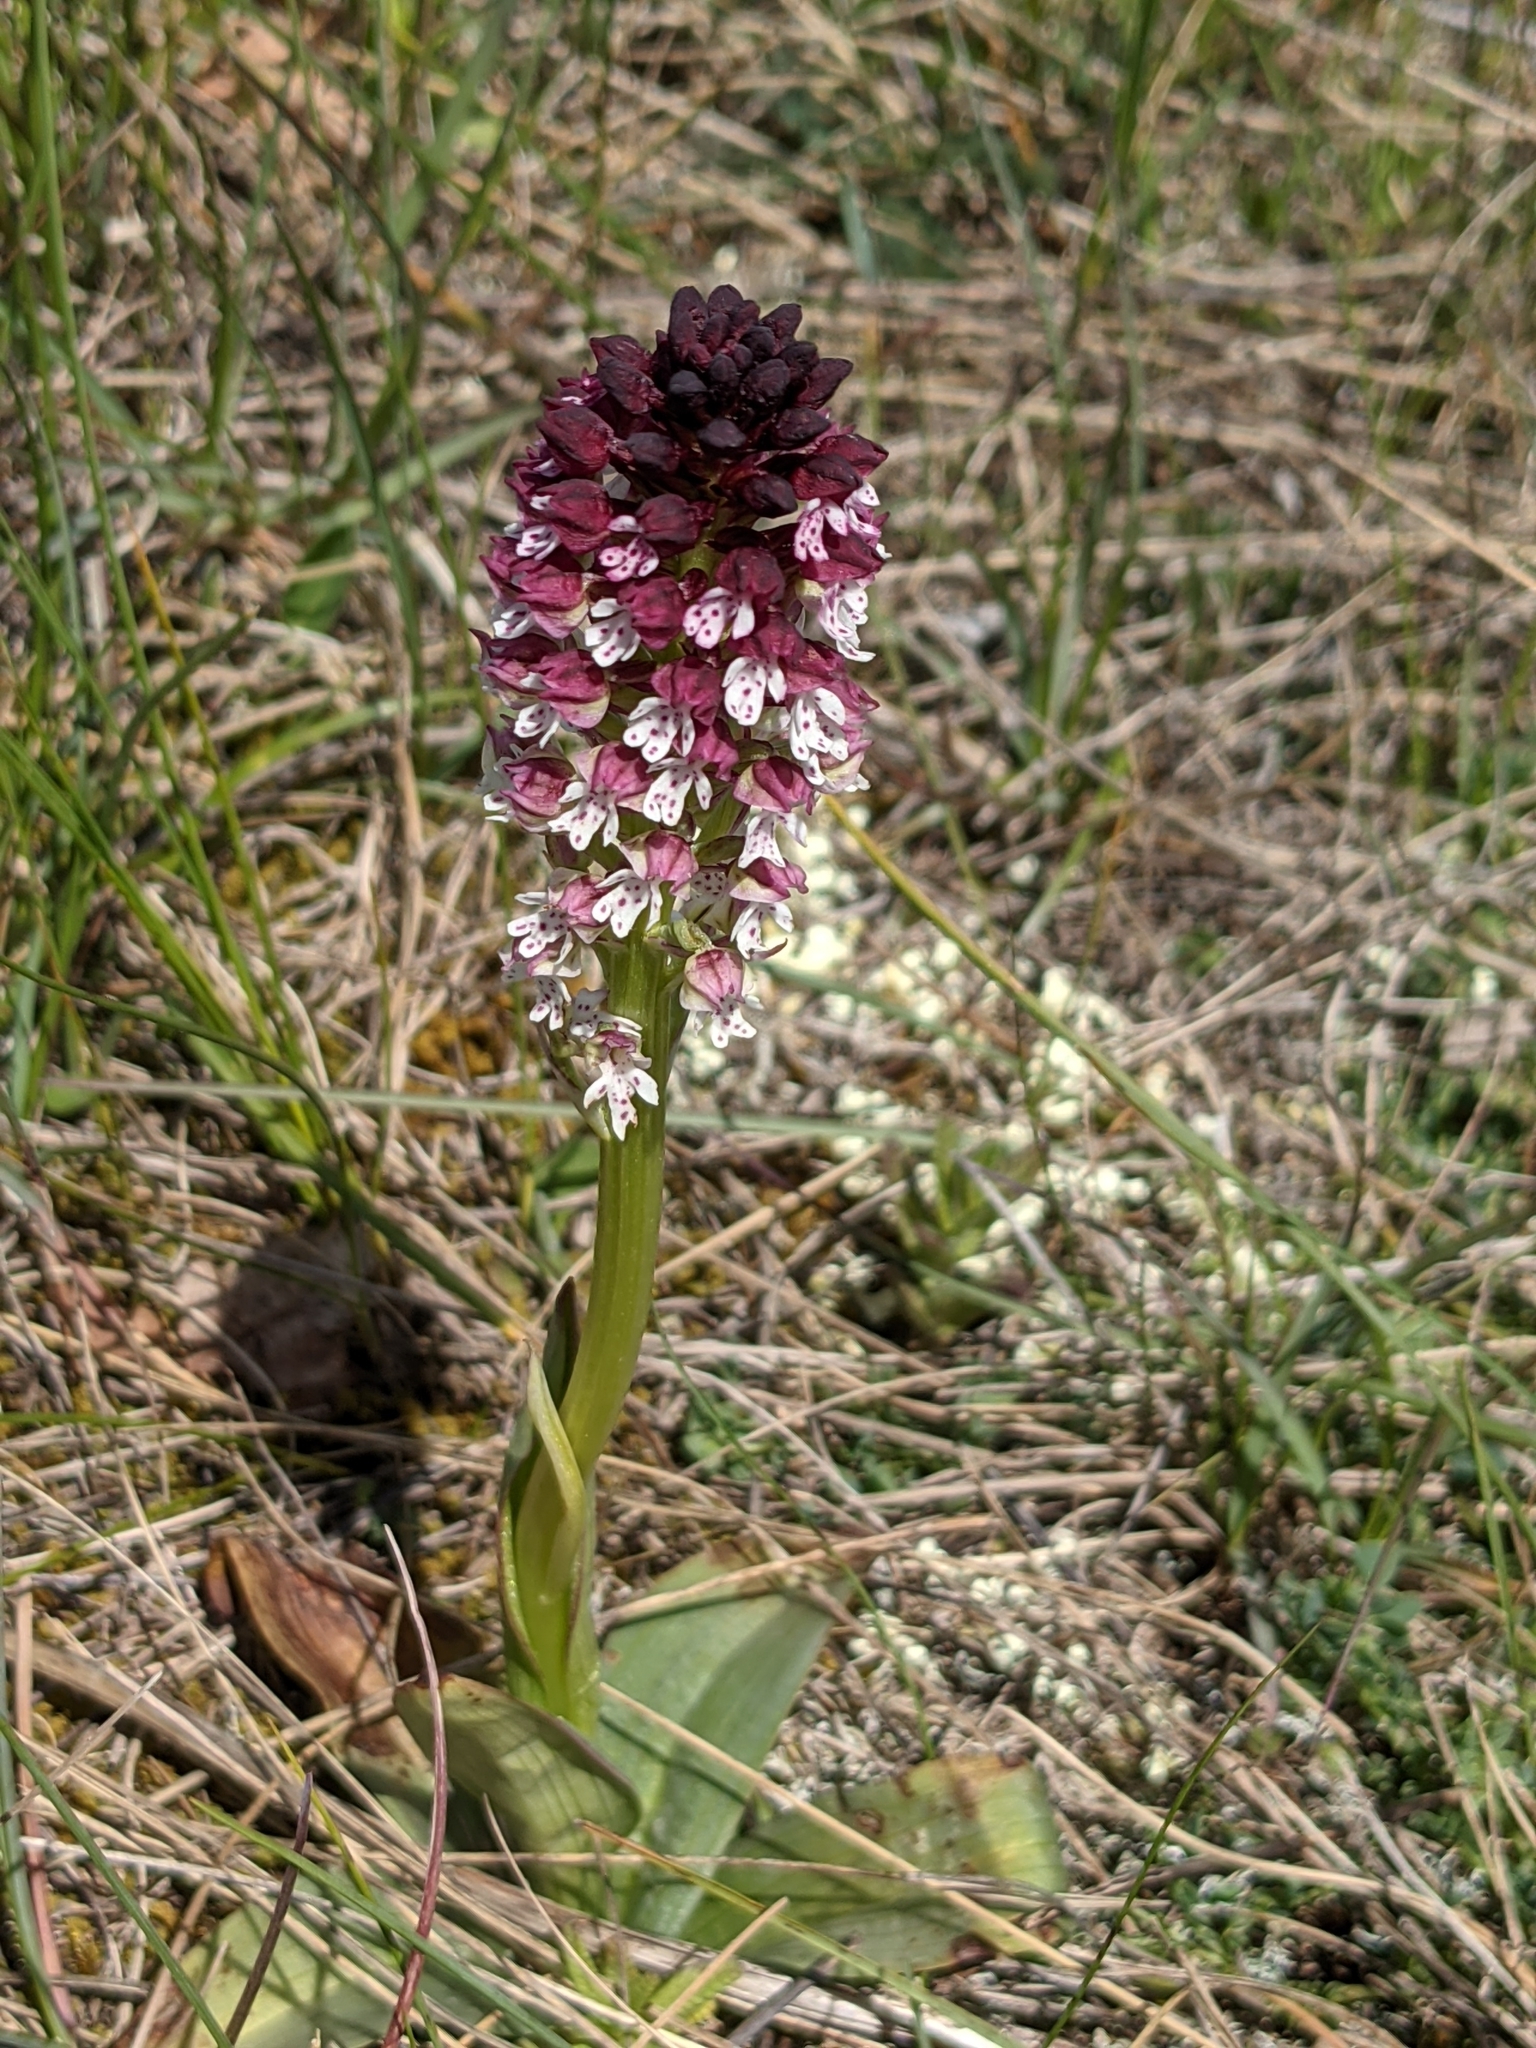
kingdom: Plantae
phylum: Tracheophyta
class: Liliopsida
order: Asparagales
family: Orchidaceae
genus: Neotinea
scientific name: Neotinea ustulata
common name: Burnt orchid
